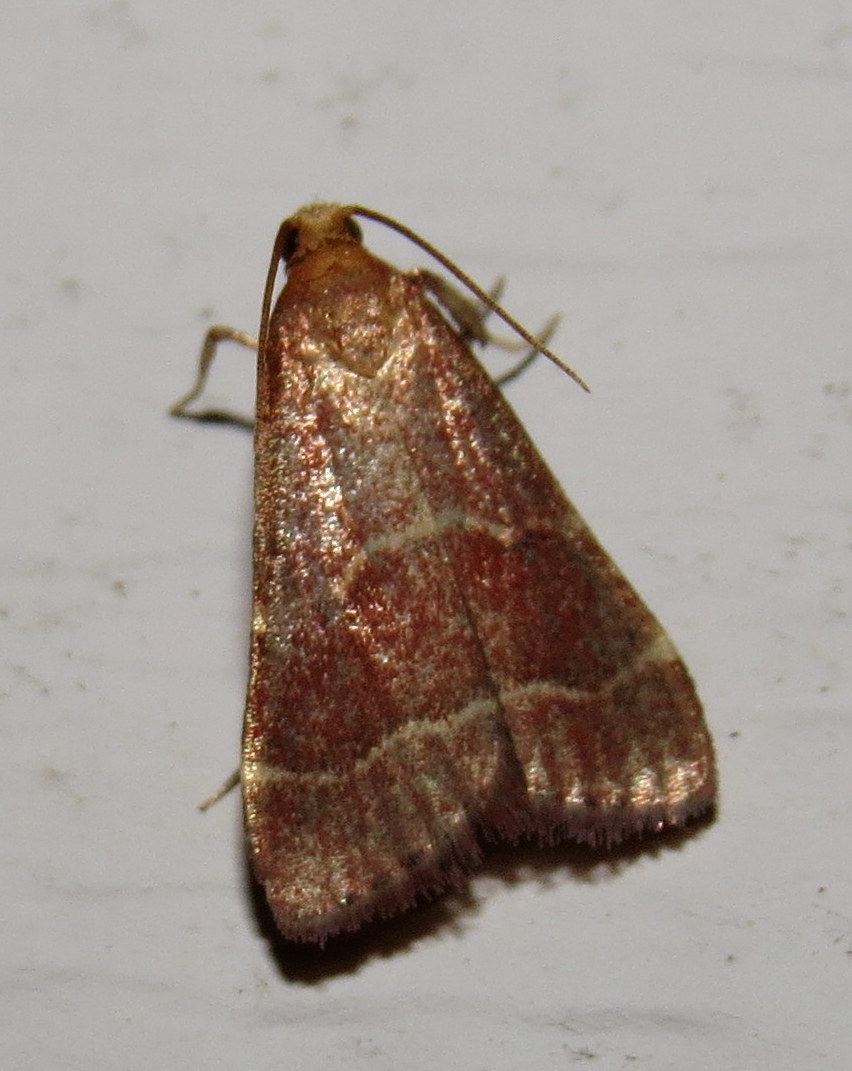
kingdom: Animalia
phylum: Arthropoda
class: Insecta
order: Lepidoptera
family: Pyralidae
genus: Arta
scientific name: Arta statalis
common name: Posturing arta moth
